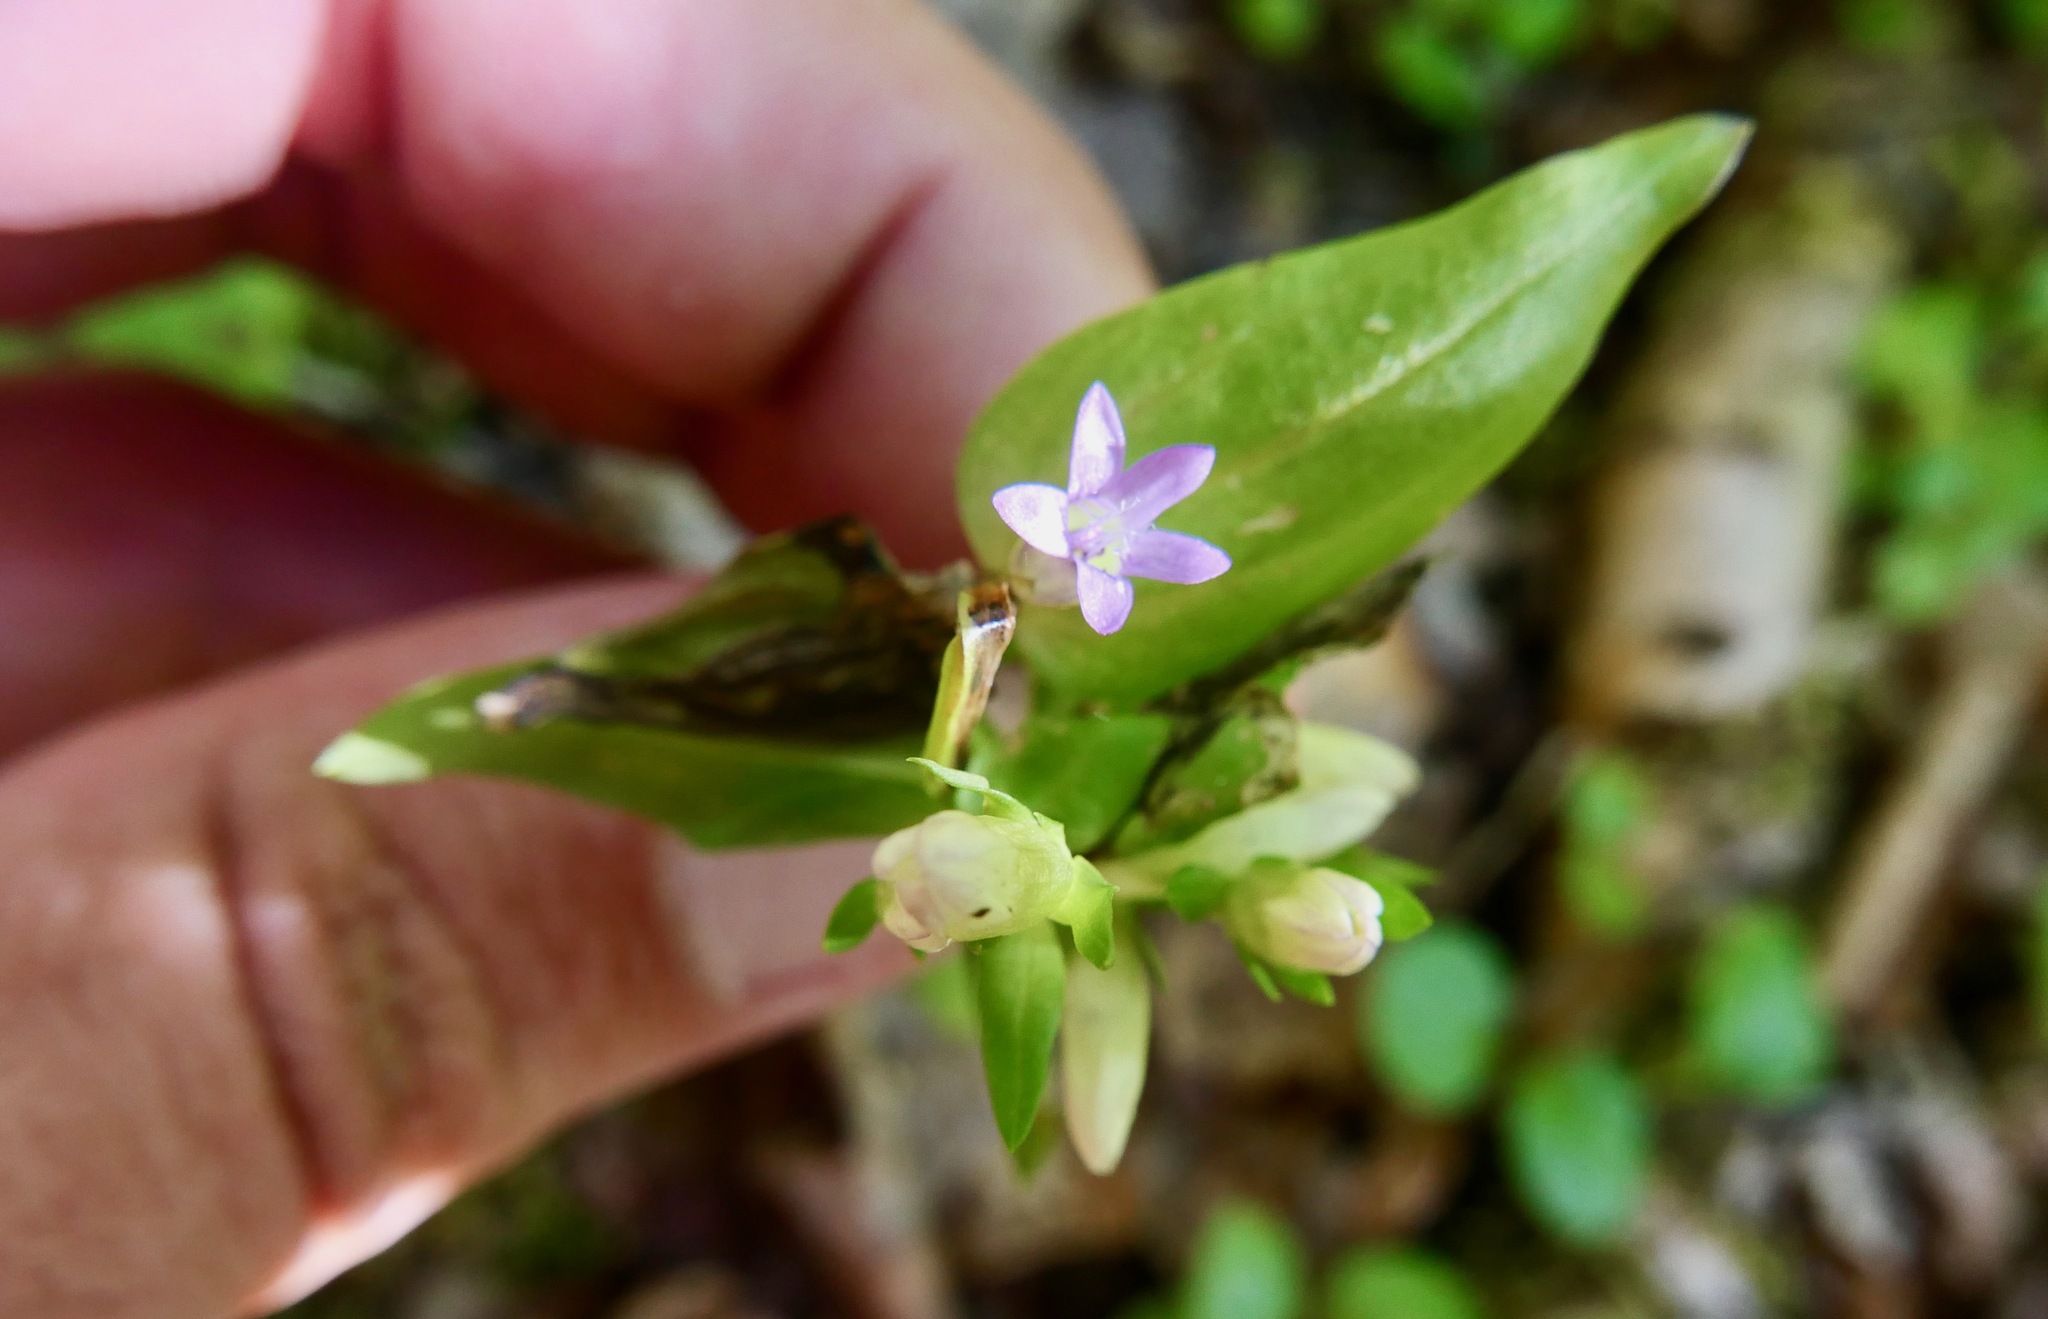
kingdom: Plantae
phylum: Tracheophyta
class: Magnoliopsida
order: Gentianales
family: Gentianaceae
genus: Gentianella
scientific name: Gentianella amarella
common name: Autumn gentian
